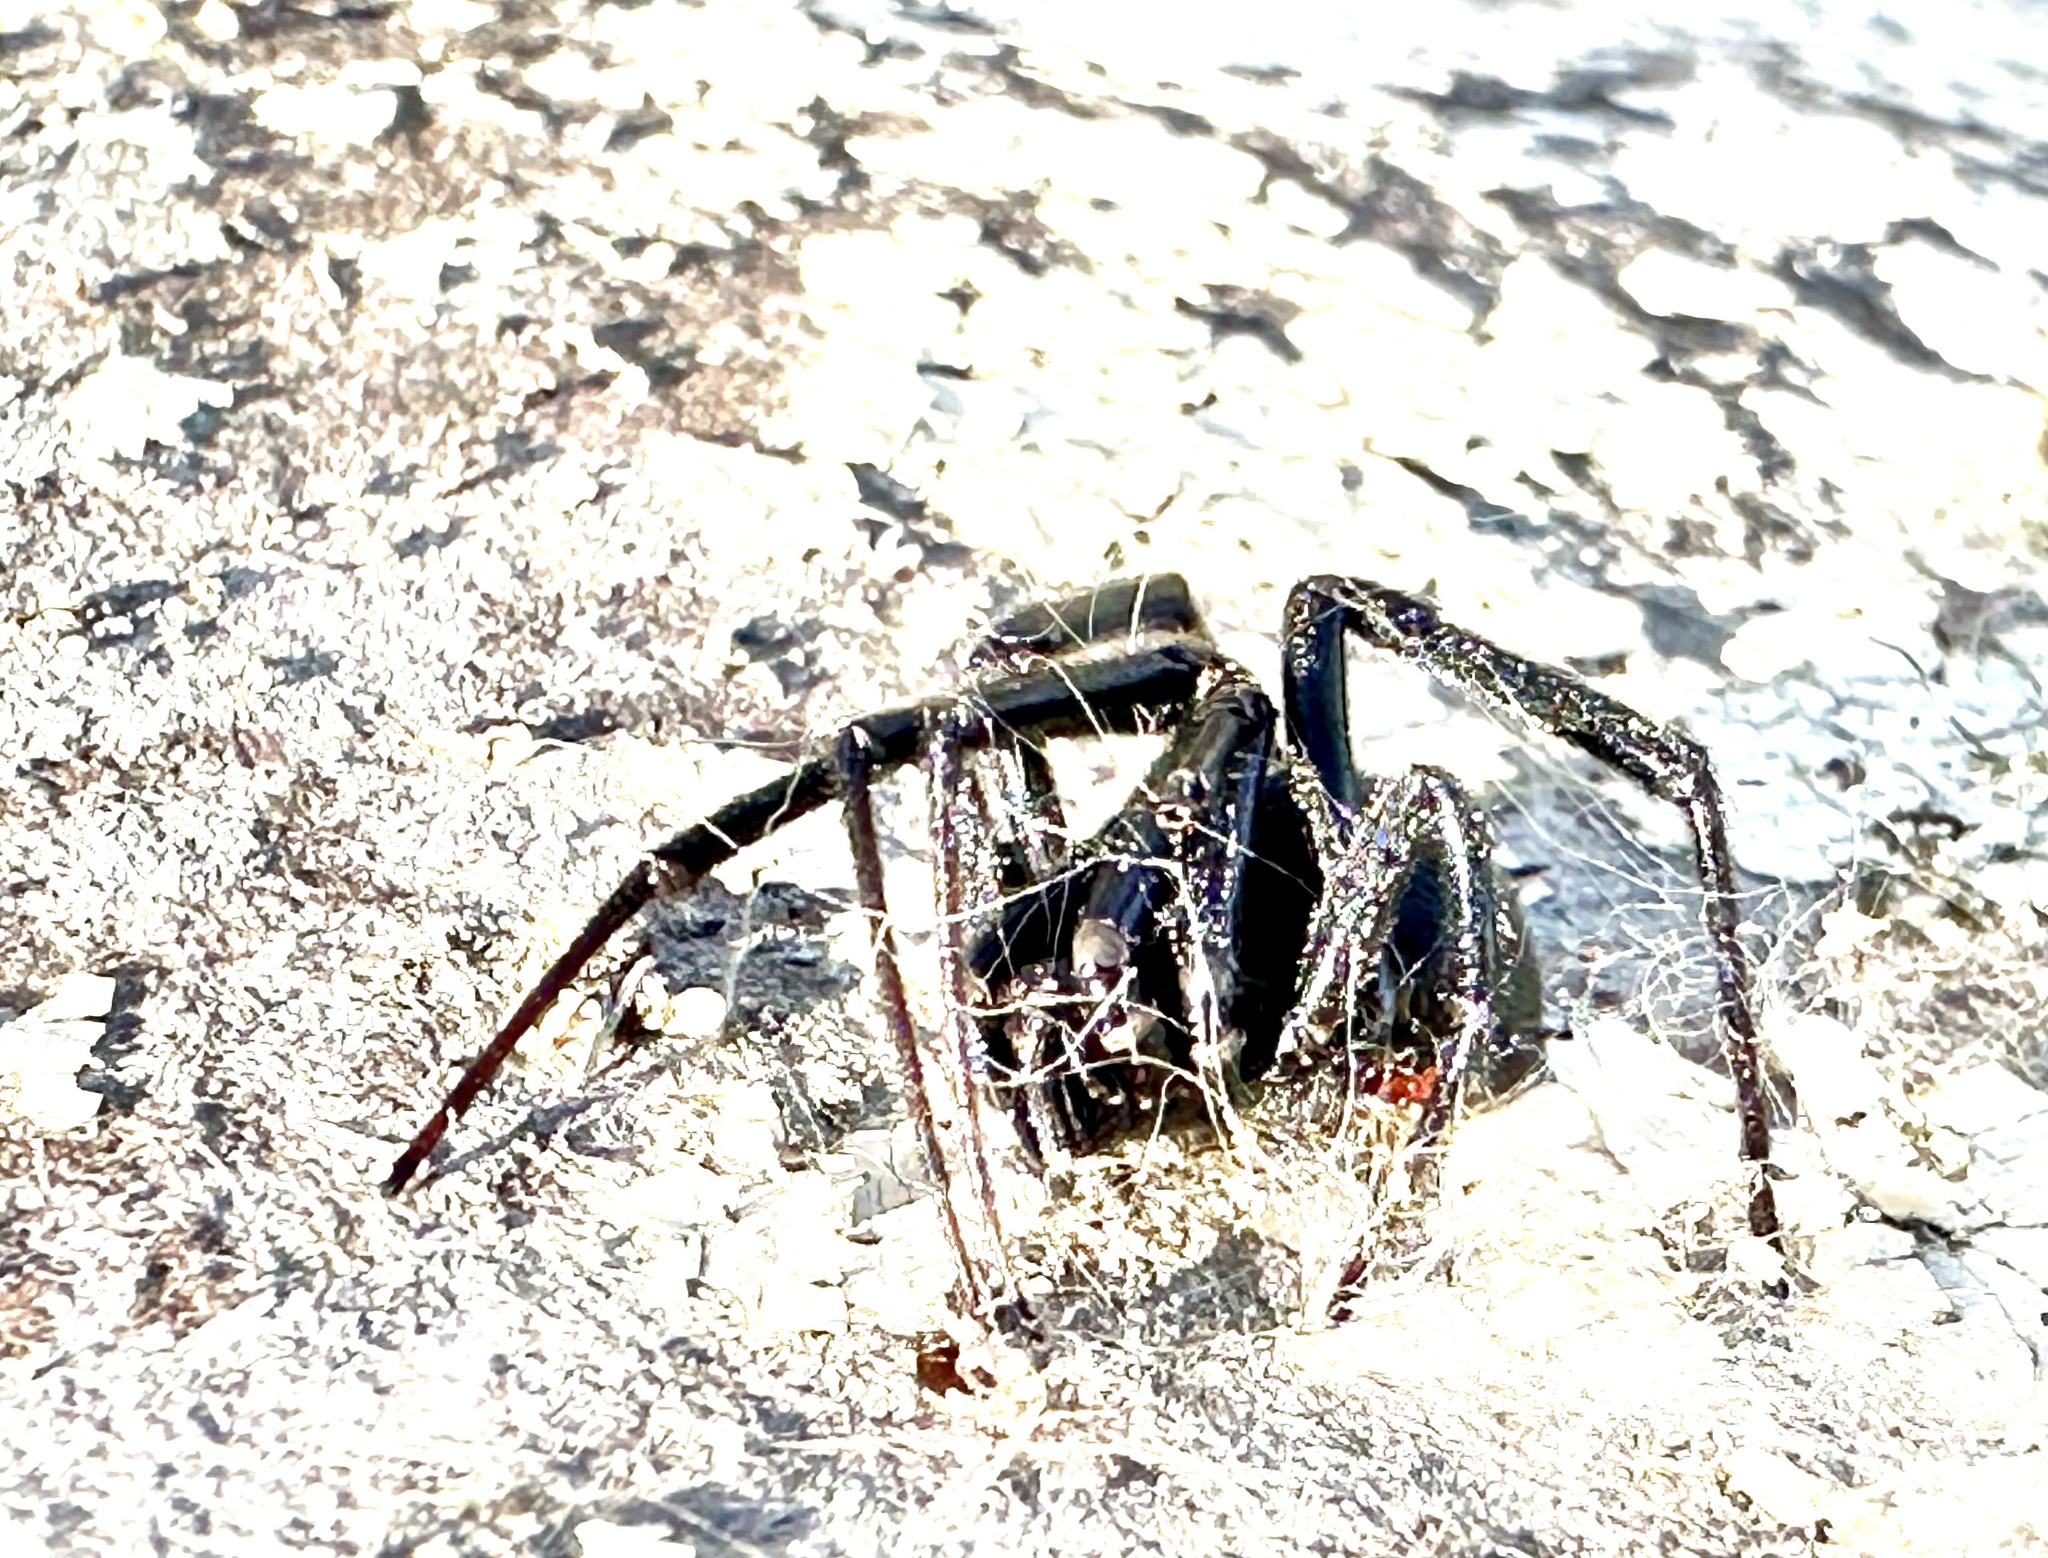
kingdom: Animalia
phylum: Arthropoda
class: Arachnida
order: Araneae
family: Theridiidae
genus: Latrodectus
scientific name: Latrodectus hesperus
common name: Western black widow
